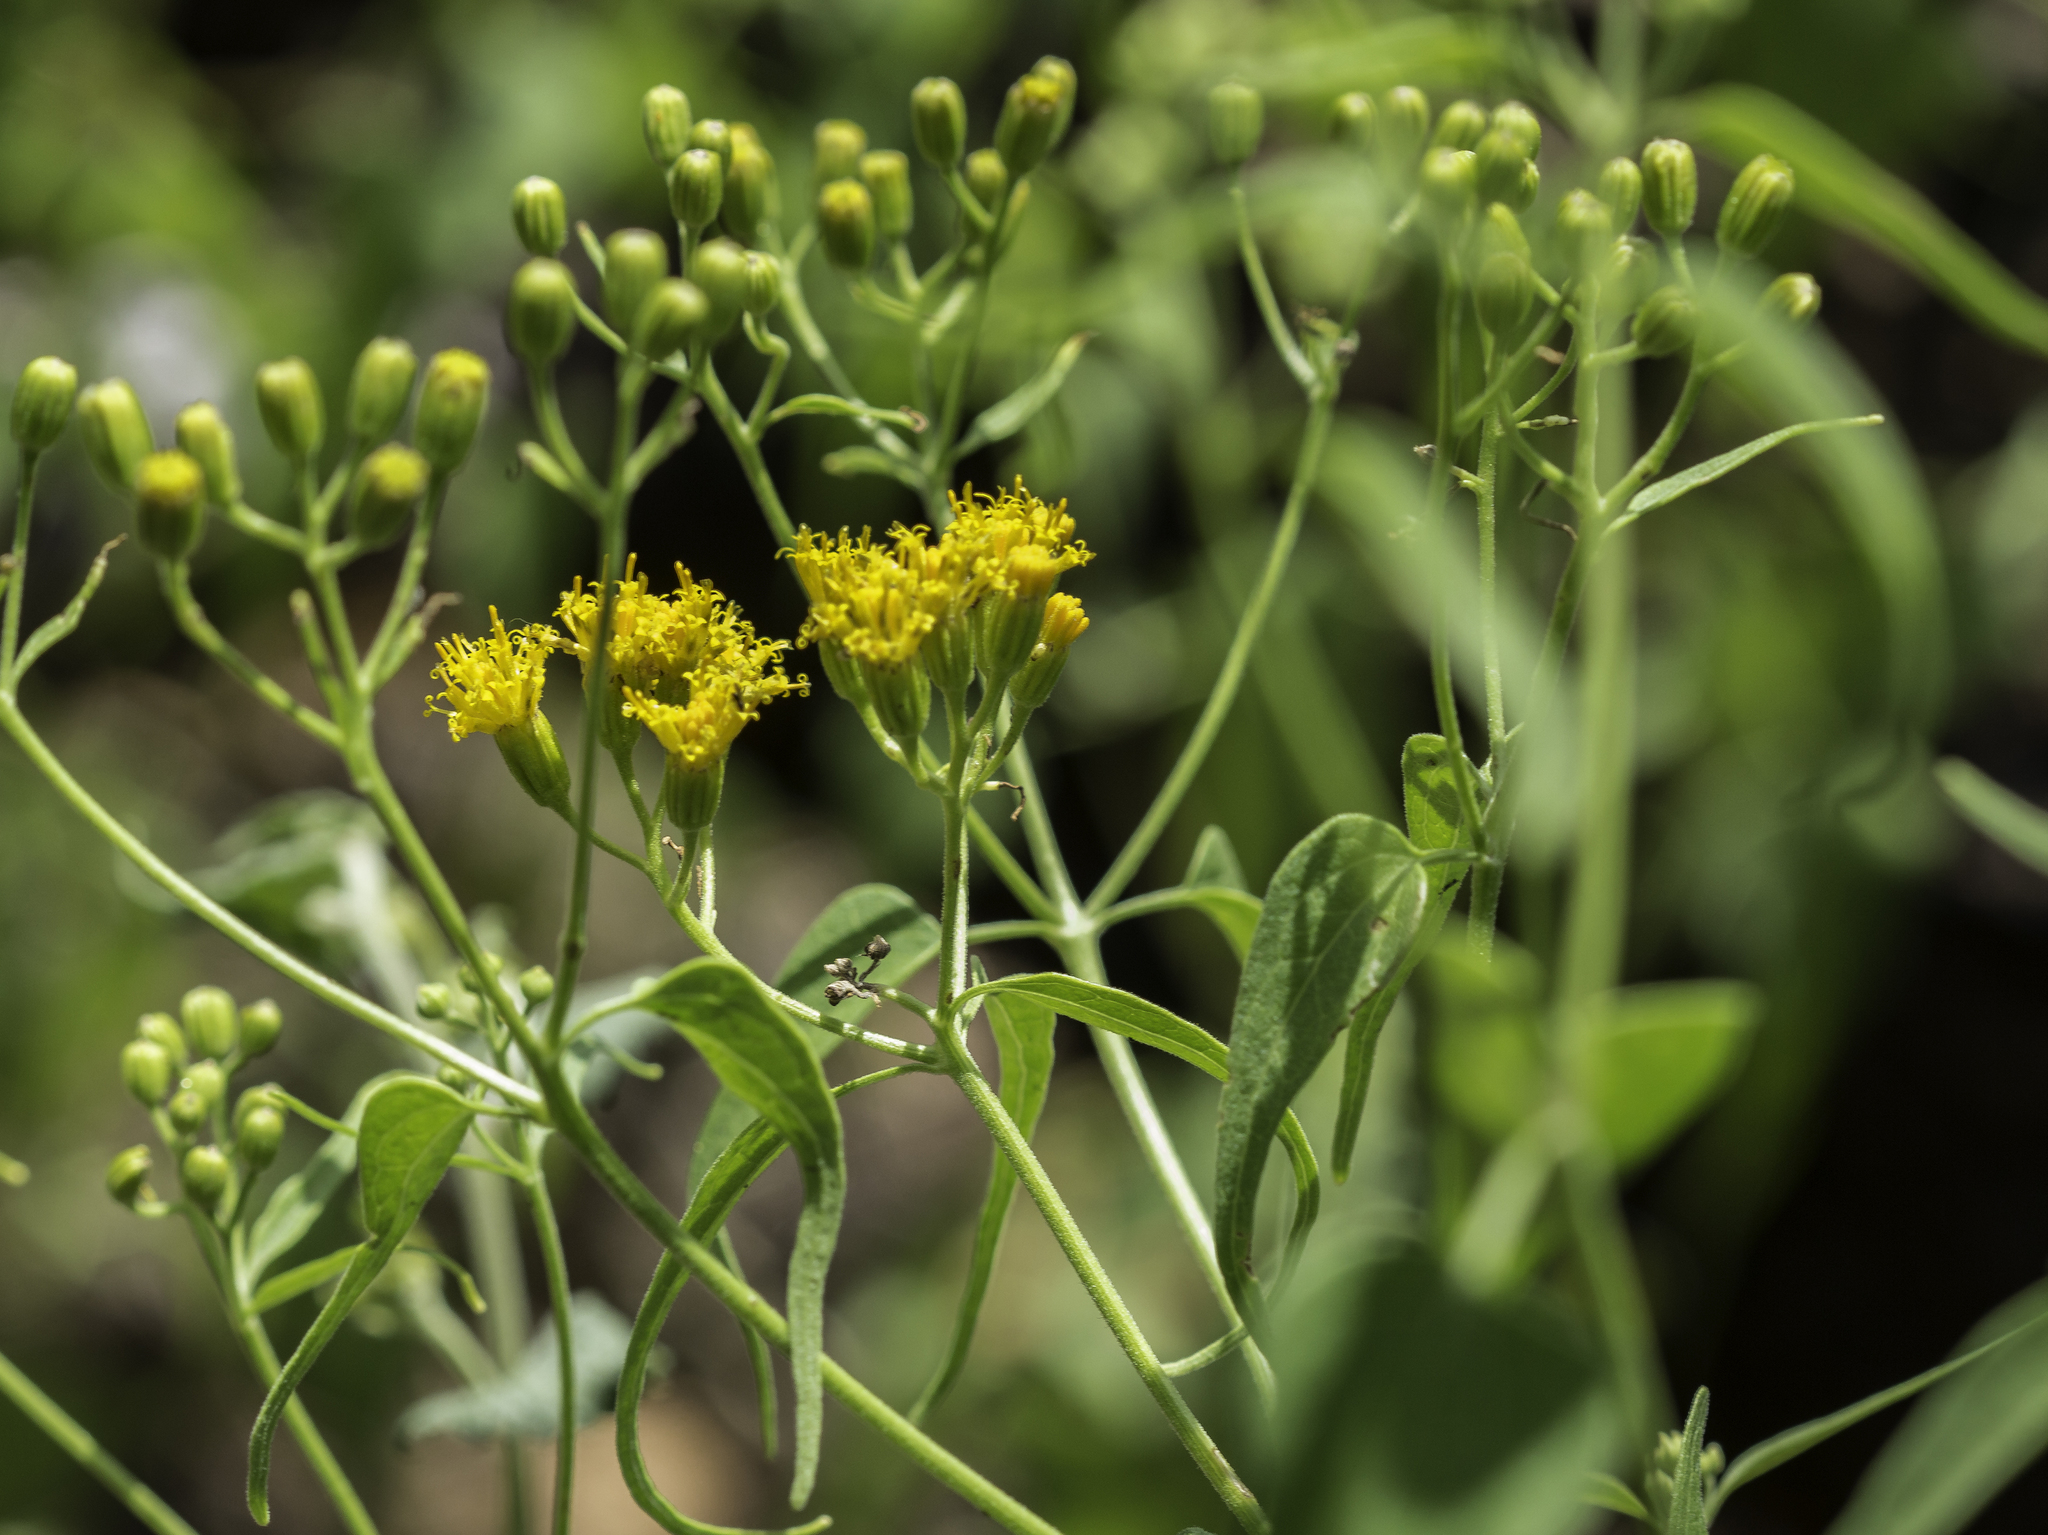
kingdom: Plantae
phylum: Tracheophyta
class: Magnoliopsida
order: Asterales
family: Asteraceae
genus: Pericome
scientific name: Pericome caudata
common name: Taperleaf
